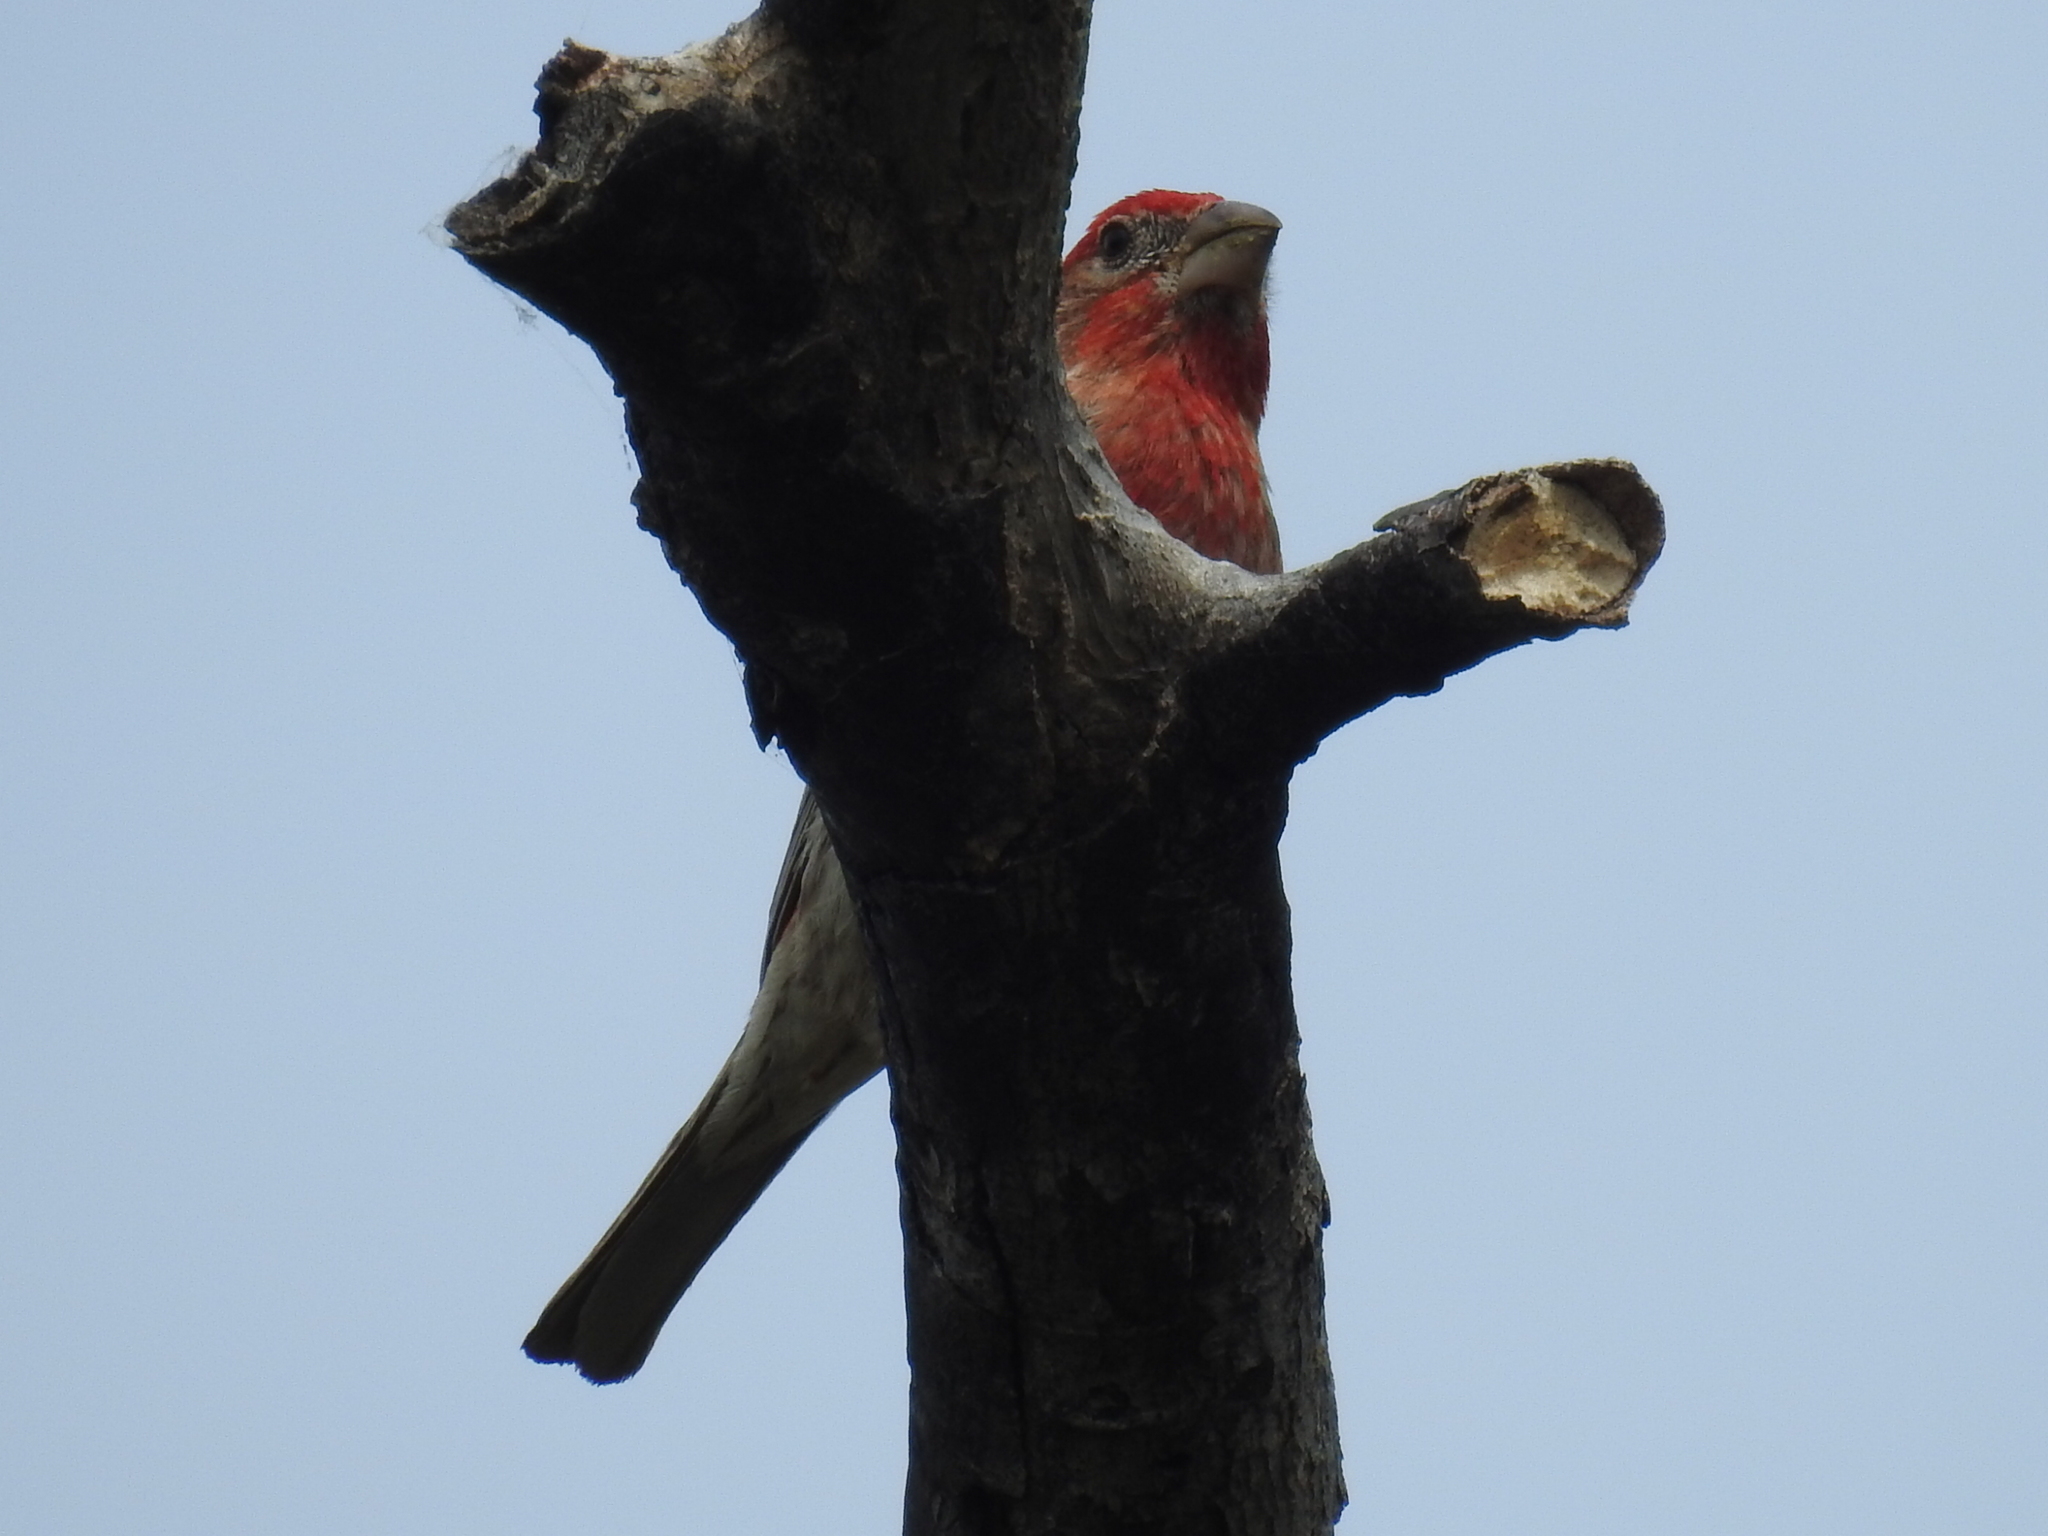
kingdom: Animalia
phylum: Chordata
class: Aves
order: Passeriformes
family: Fringillidae
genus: Haemorhous
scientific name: Haemorhous mexicanus
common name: House finch
